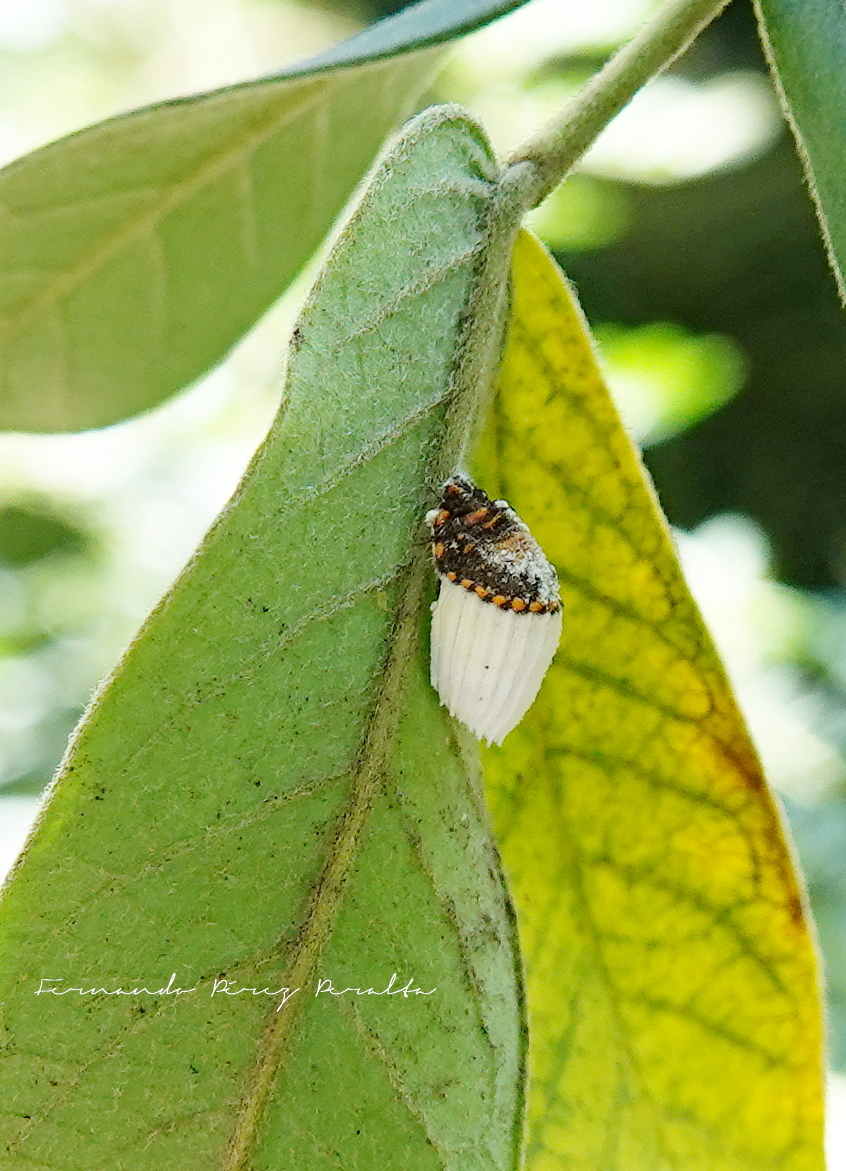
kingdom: Animalia
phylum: Arthropoda
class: Insecta
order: Hemiptera
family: Margarodidae
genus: Icerya
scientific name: Icerya purchasi
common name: Cottony cushion scale
